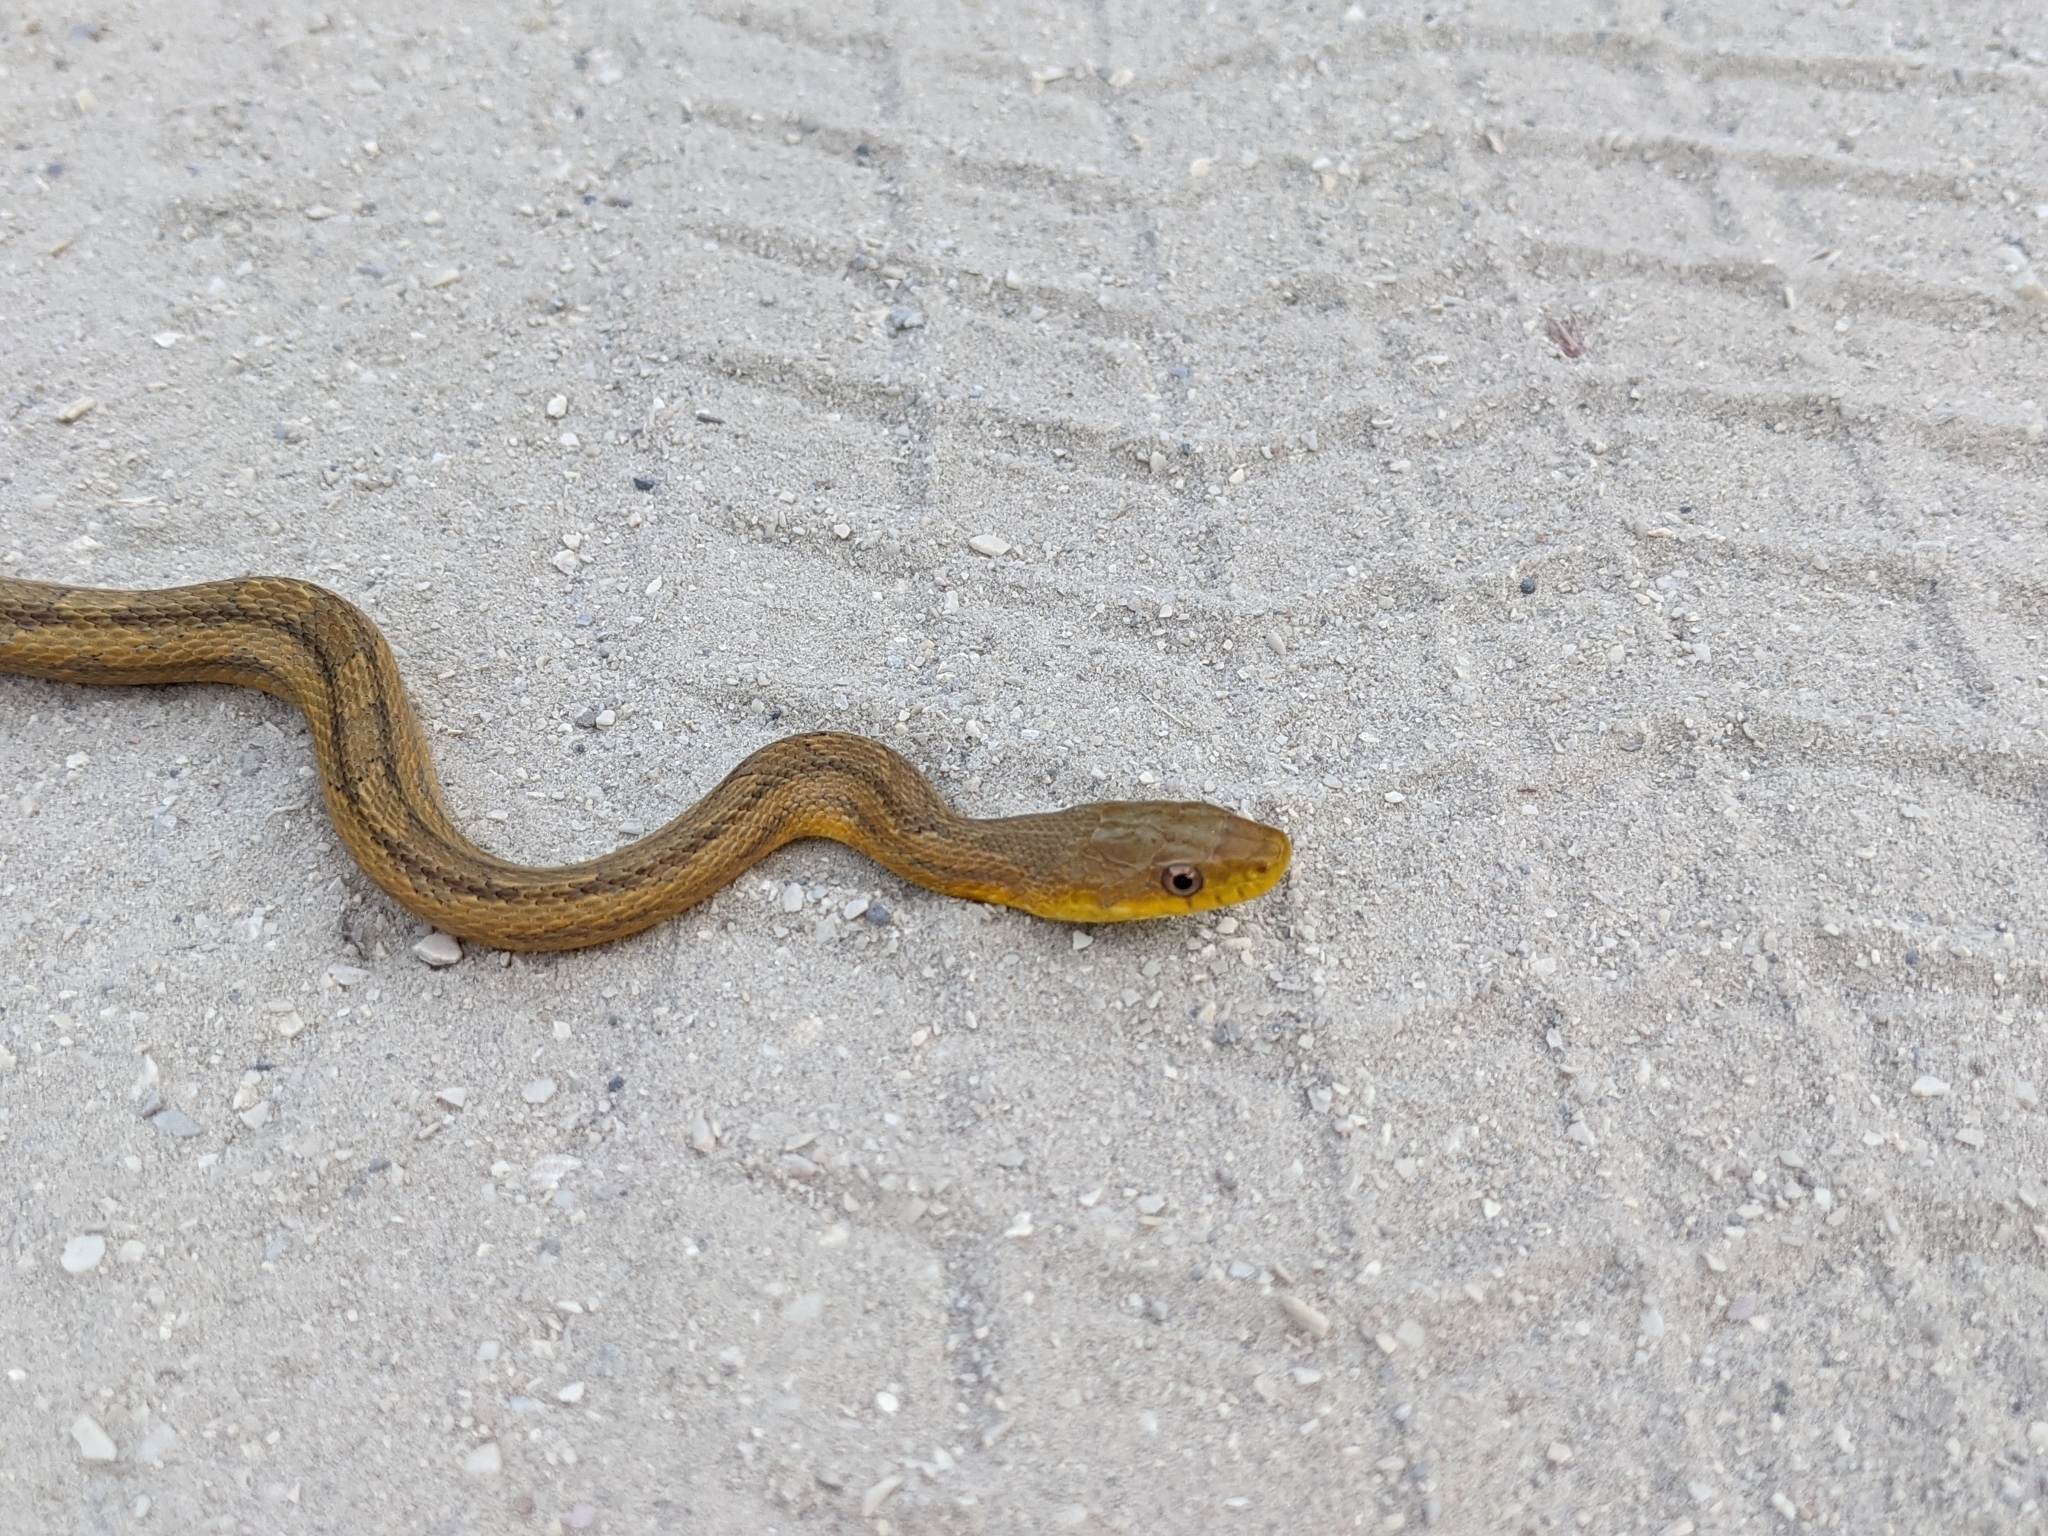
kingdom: Animalia
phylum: Chordata
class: Squamata
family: Colubridae
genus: Pantherophis
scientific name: Pantherophis alleghaniensis
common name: Eastern rat snake
